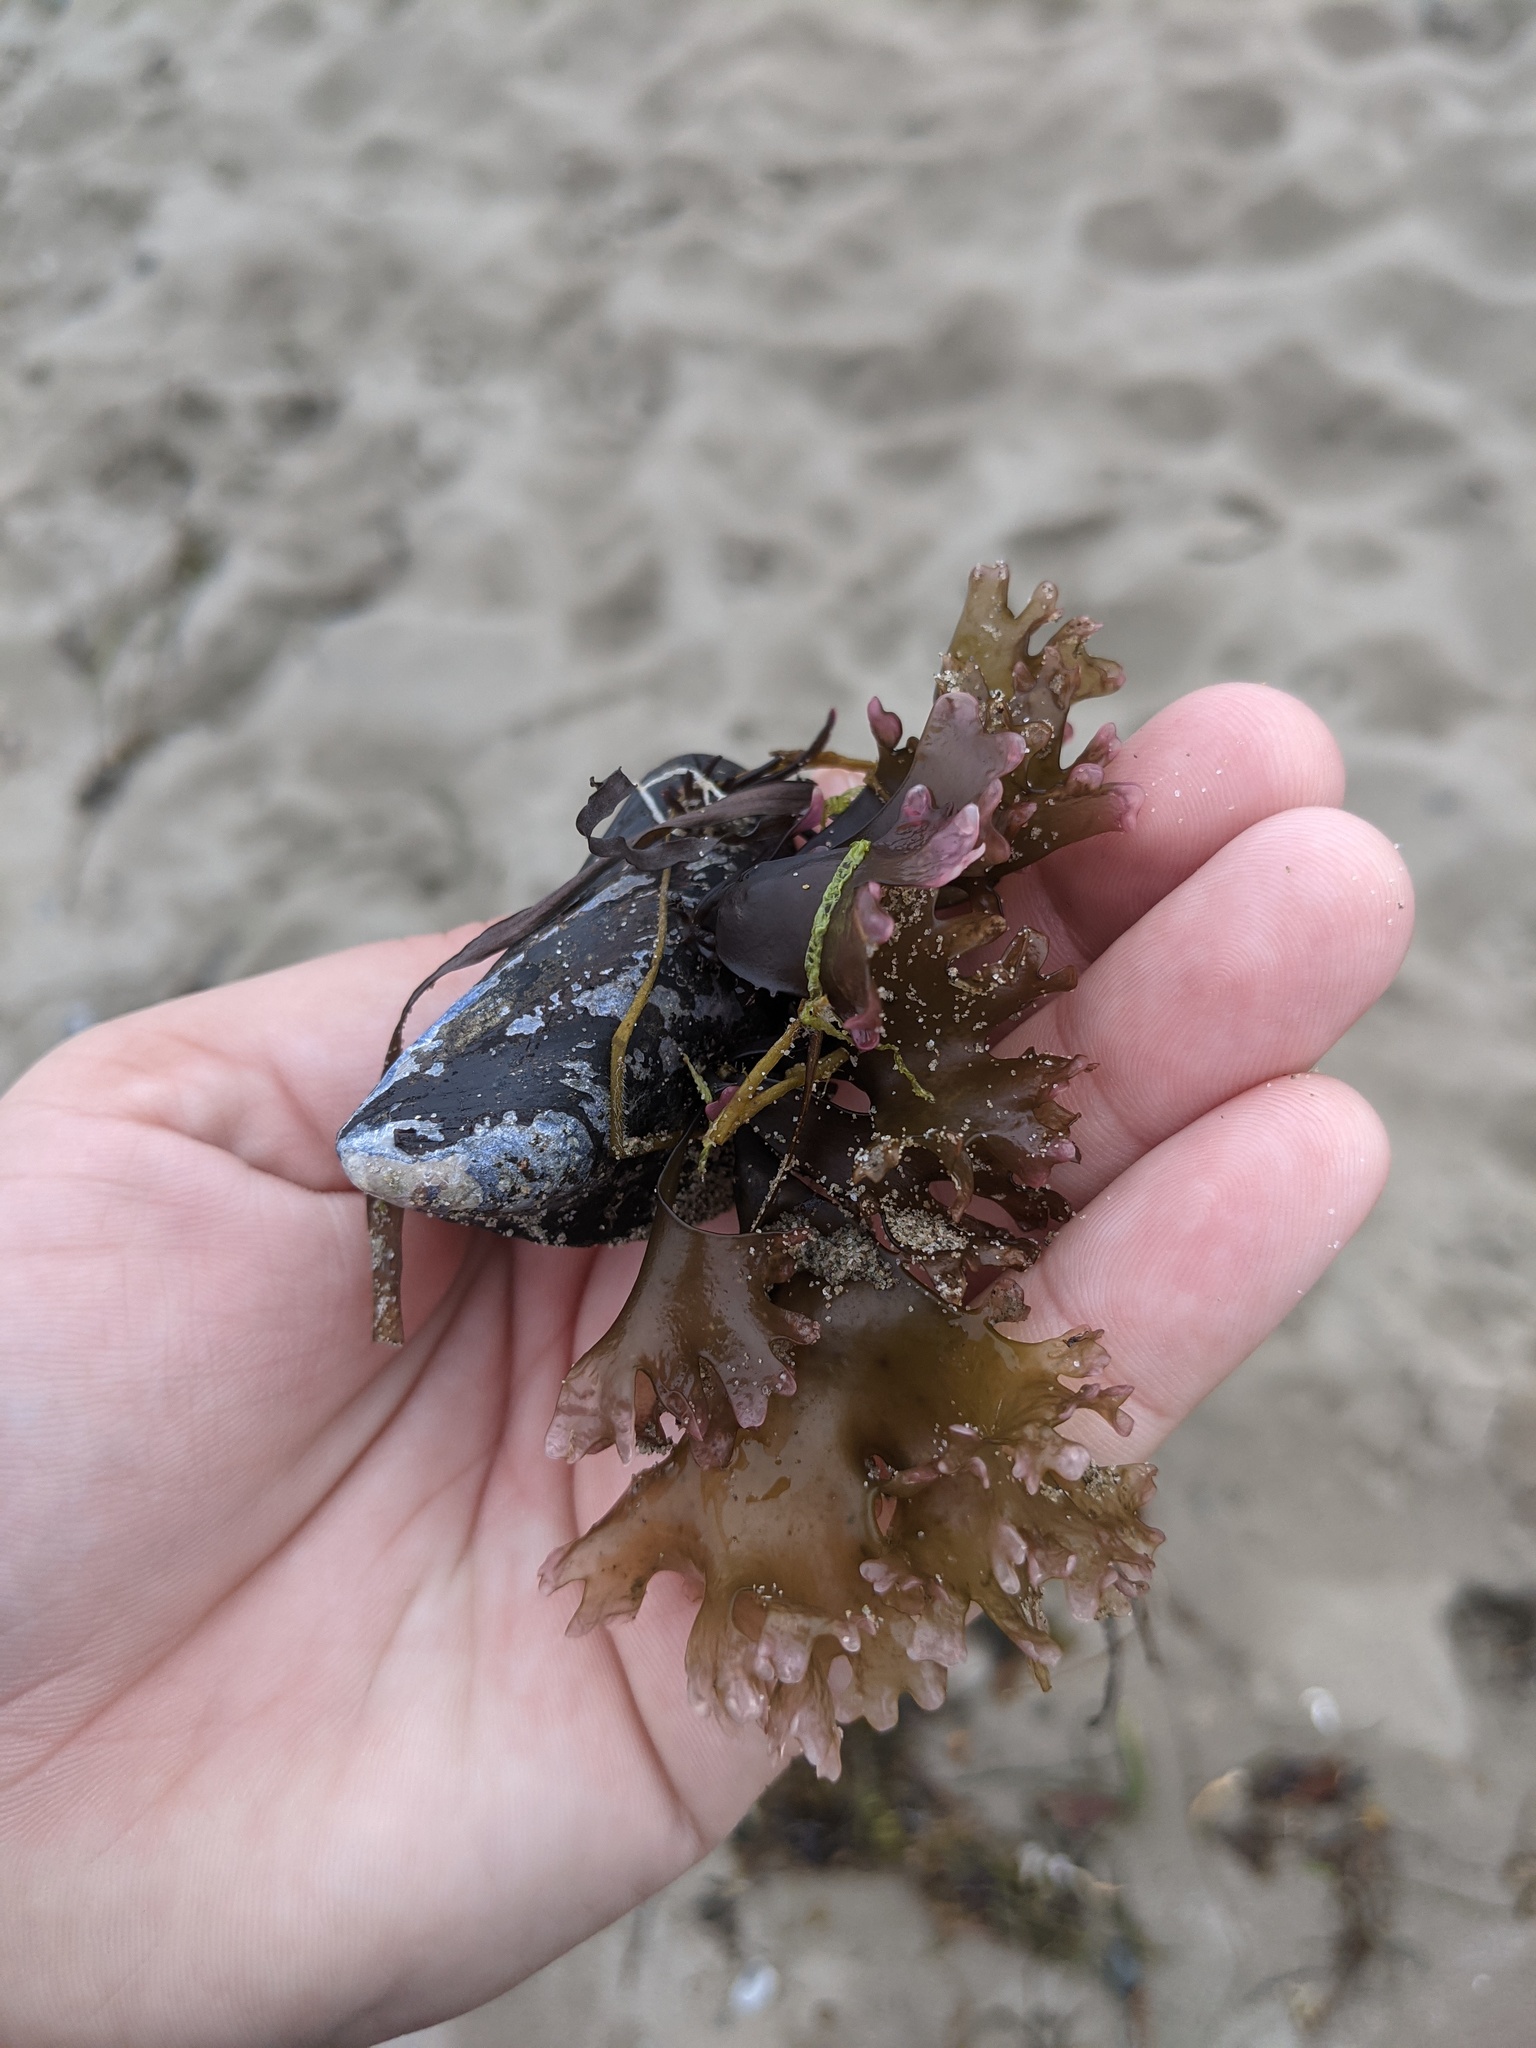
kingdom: Plantae
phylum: Rhodophyta
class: Florideophyceae
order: Gigartinales
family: Gigartinaceae
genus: Chondrus
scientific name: Chondrus crispus
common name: Carrageen
